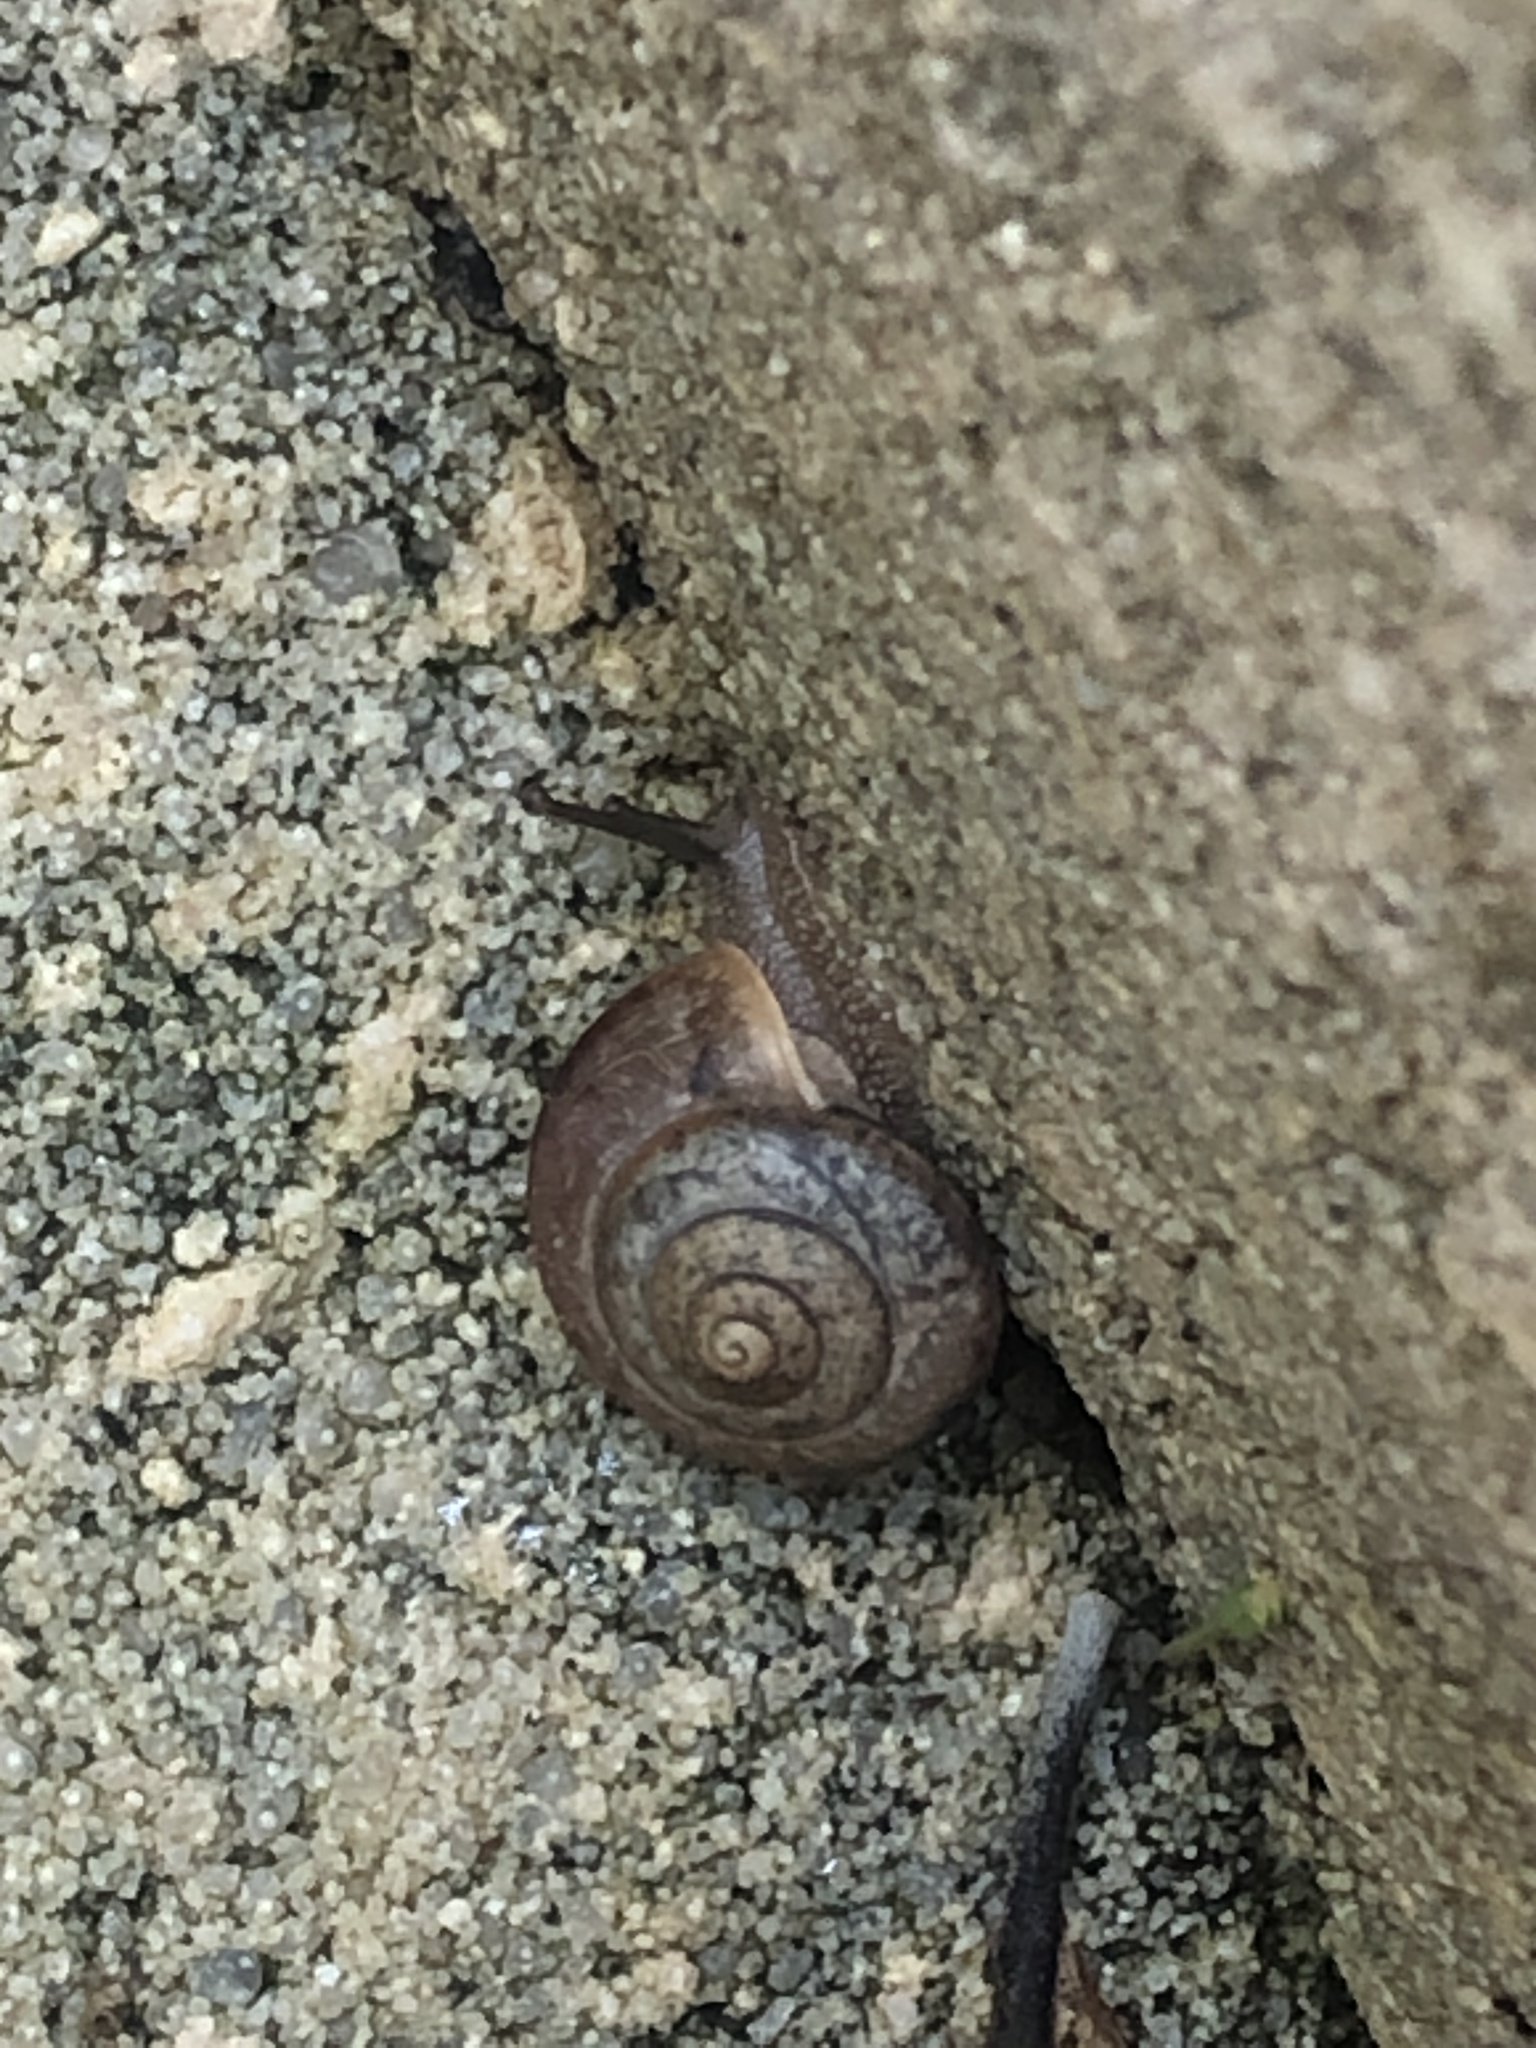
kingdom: Animalia
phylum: Mollusca
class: Gastropoda
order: Stylommatophora
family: Camaenidae
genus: Bradybaena
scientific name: Bradybaena similaris
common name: Asian trampsnail
